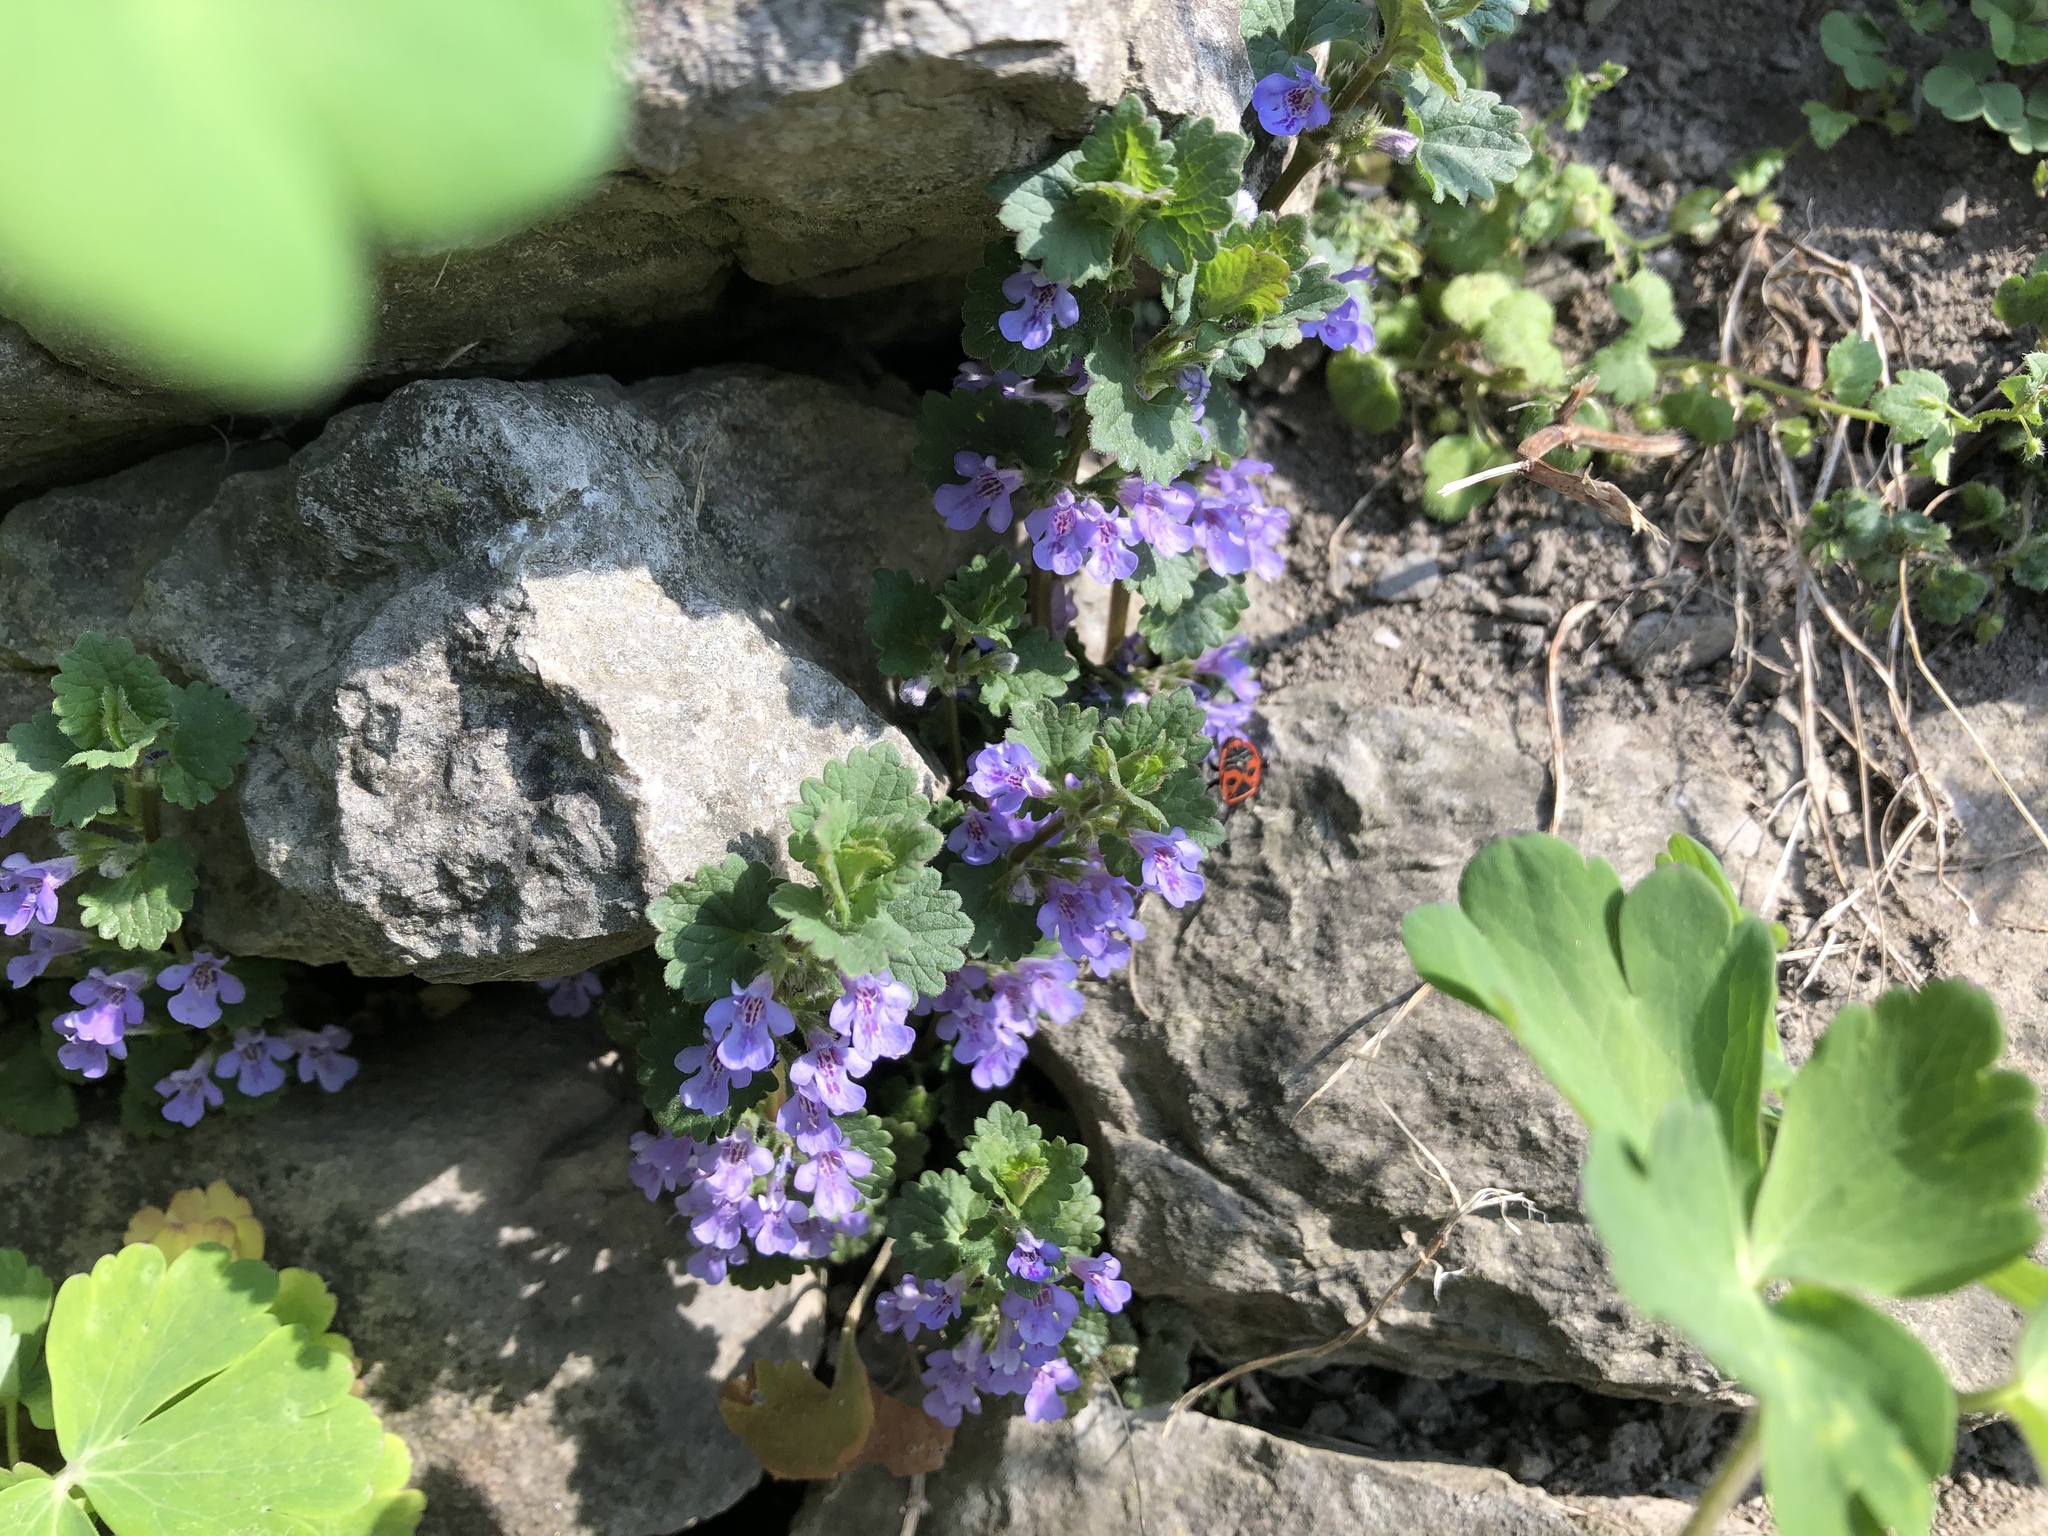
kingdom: Plantae
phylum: Tracheophyta
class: Magnoliopsida
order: Lamiales
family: Lamiaceae
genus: Glechoma
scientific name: Glechoma hederacea
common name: Ground ivy
